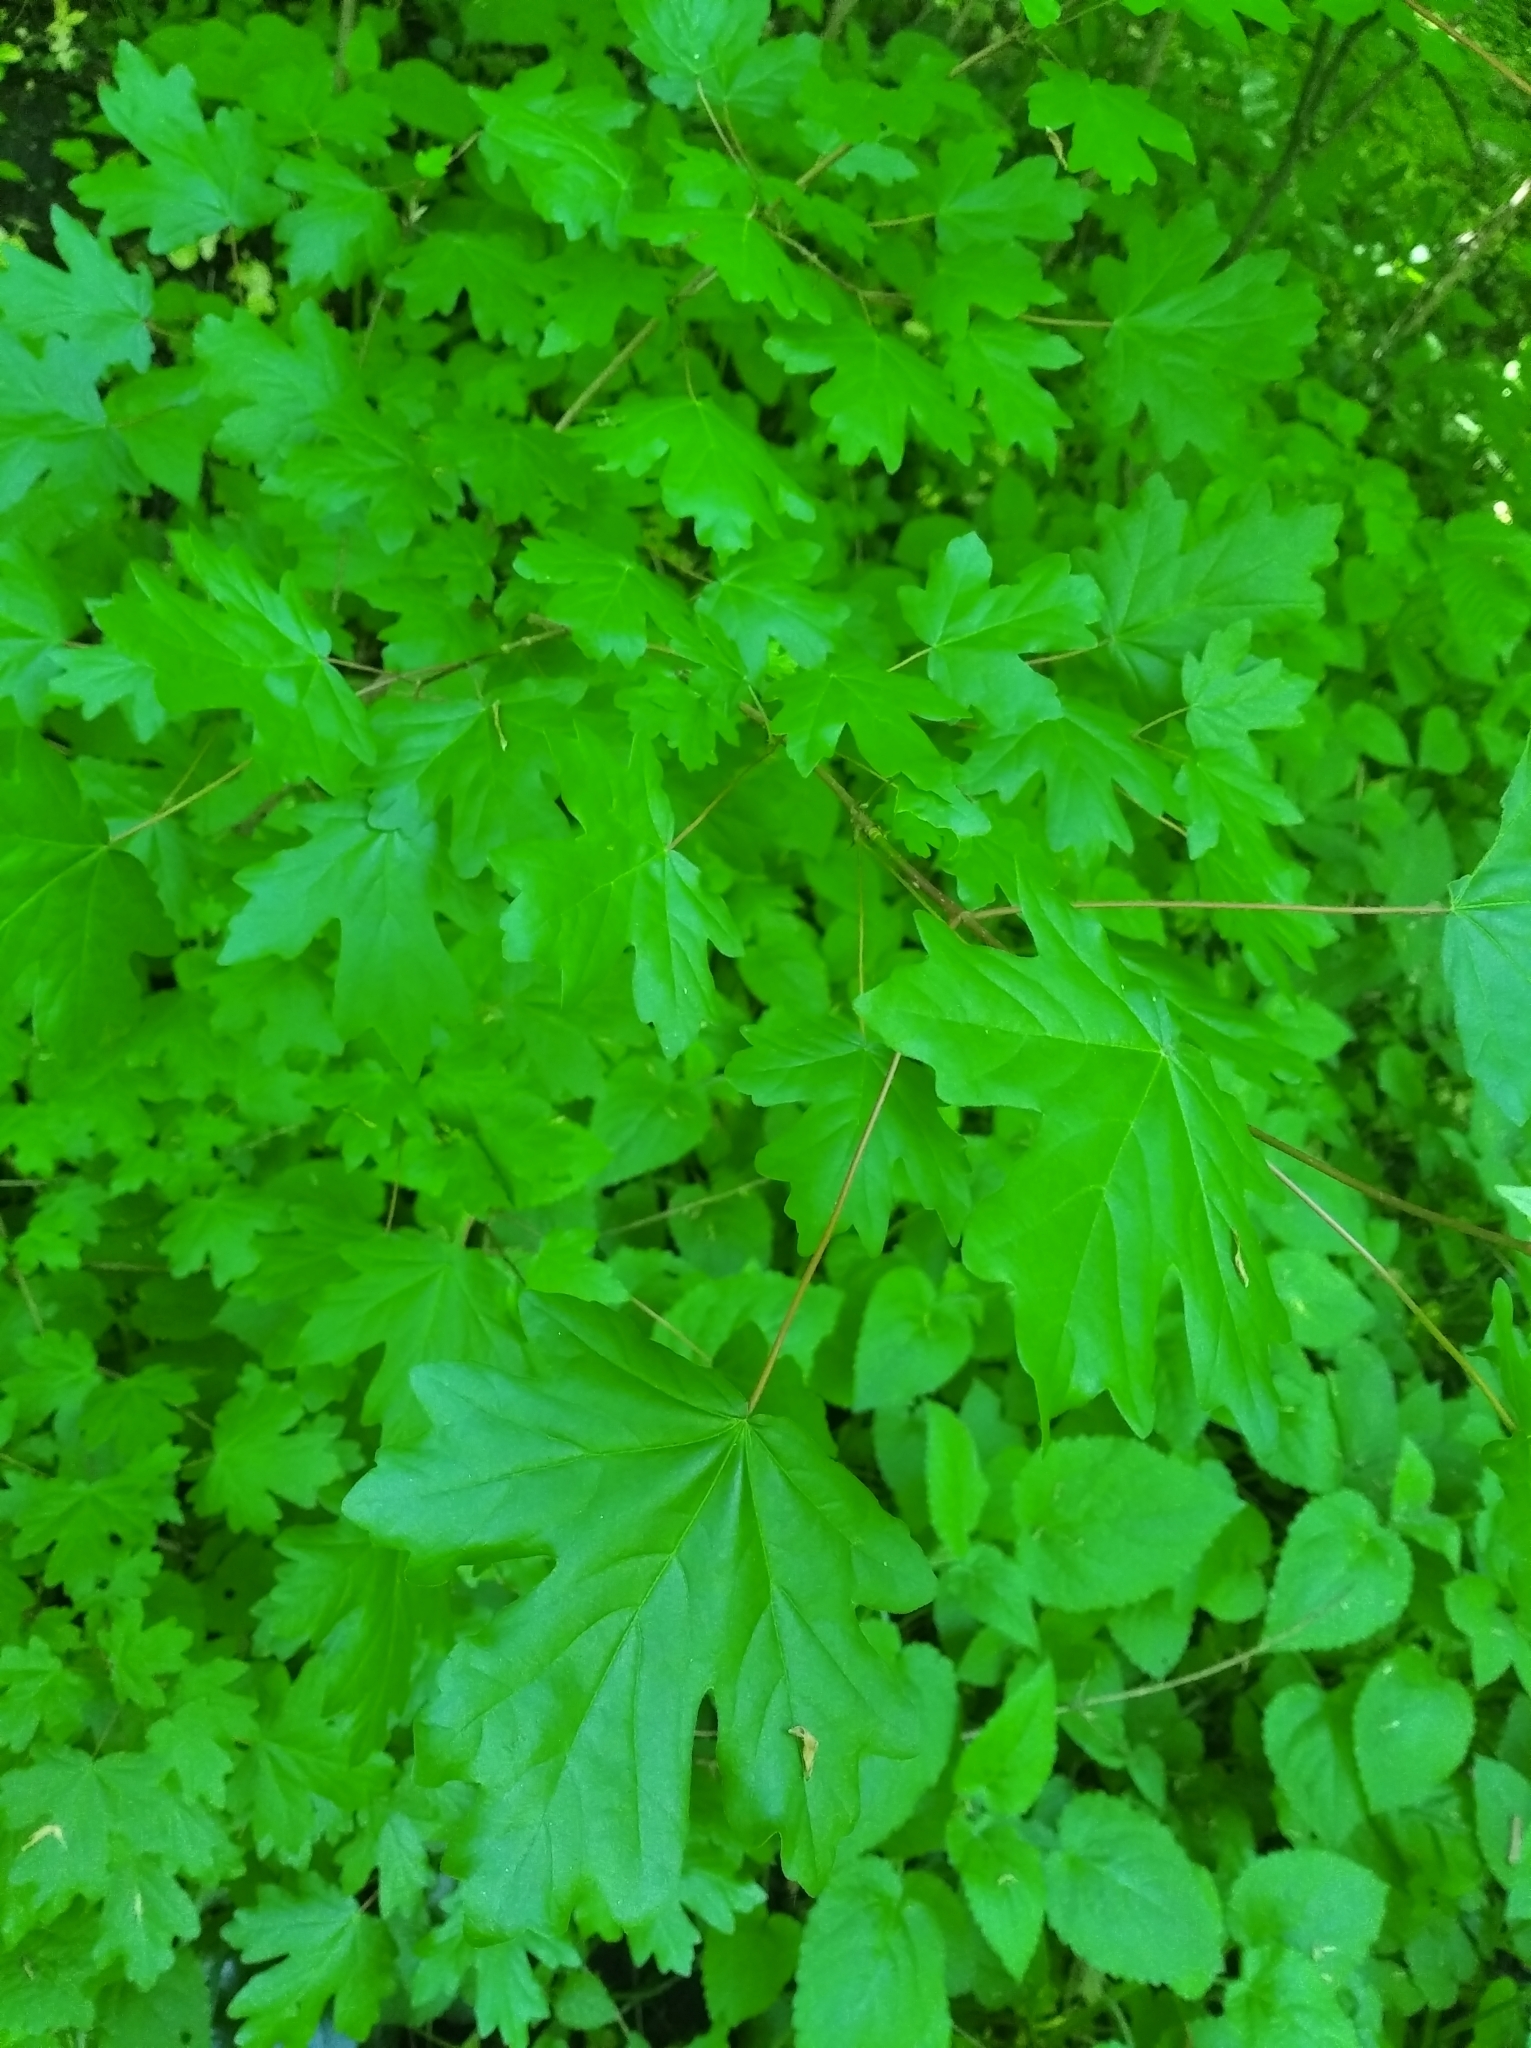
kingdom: Plantae
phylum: Tracheophyta
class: Magnoliopsida
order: Sapindales
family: Sapindaceae
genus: Acer
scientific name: Acer campestre
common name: Field maple
